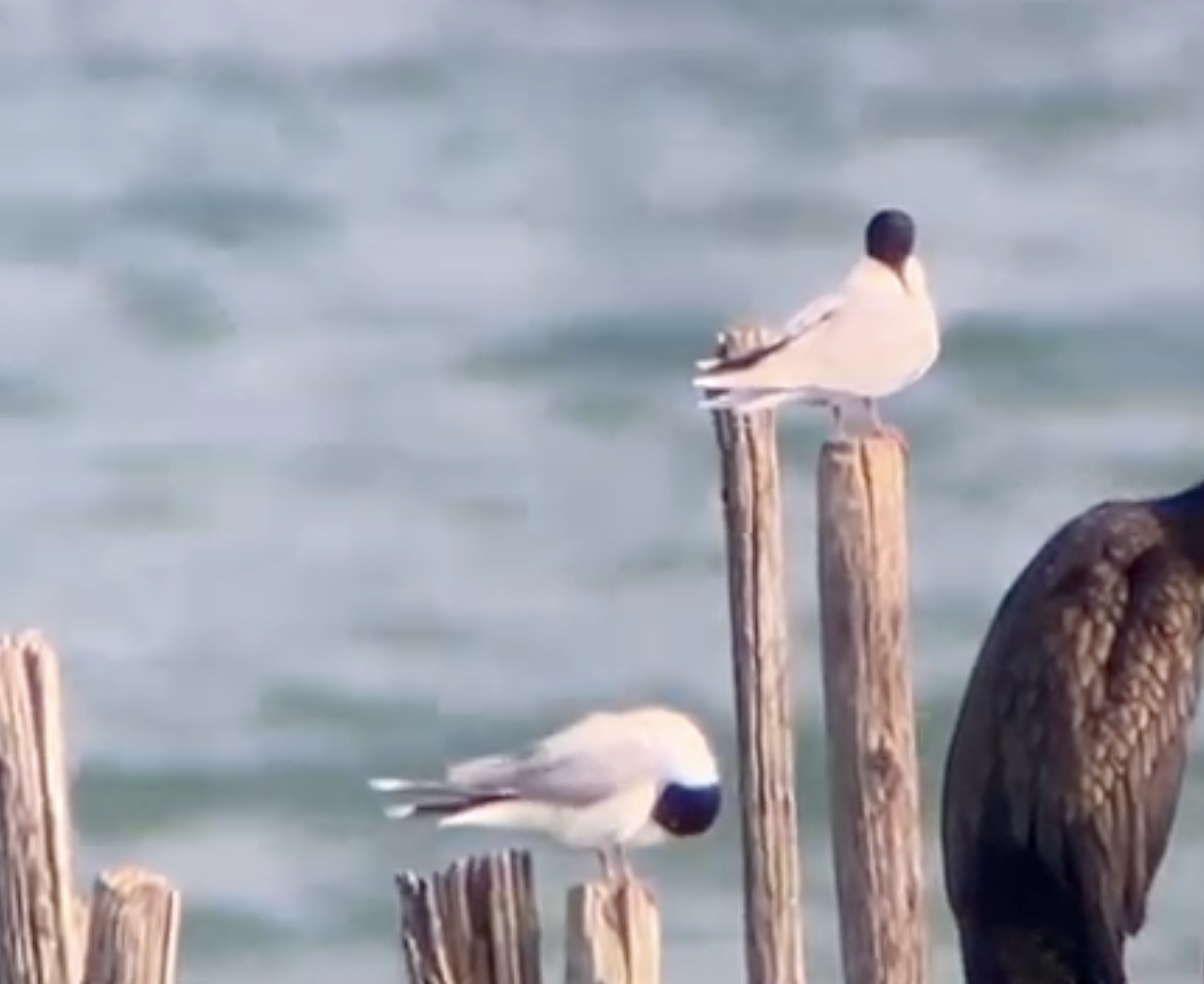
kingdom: Animalia
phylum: Chordata
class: Aves
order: Charadriiformes
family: Laridae
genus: Hydrocoloeus
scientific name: Hydrocoloeus minutus
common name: Little gull
